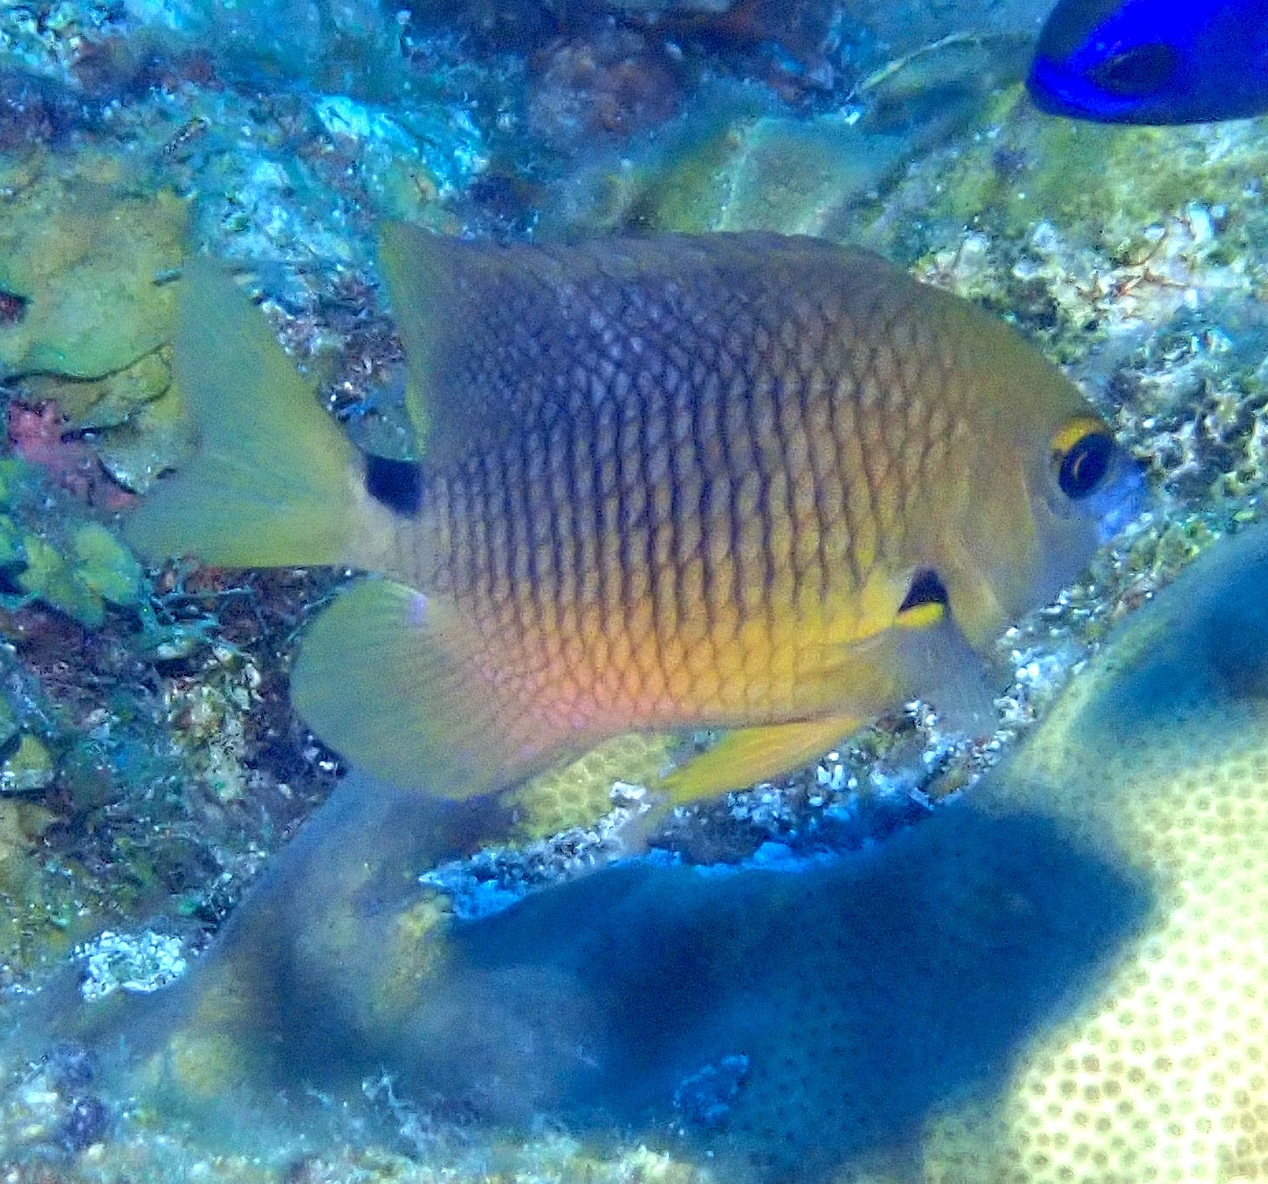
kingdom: Animalia
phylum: Chordata
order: Perciformes
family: Pomacentridae
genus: Stegastes
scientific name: Stegastes planifrons
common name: Threespot damselfish
